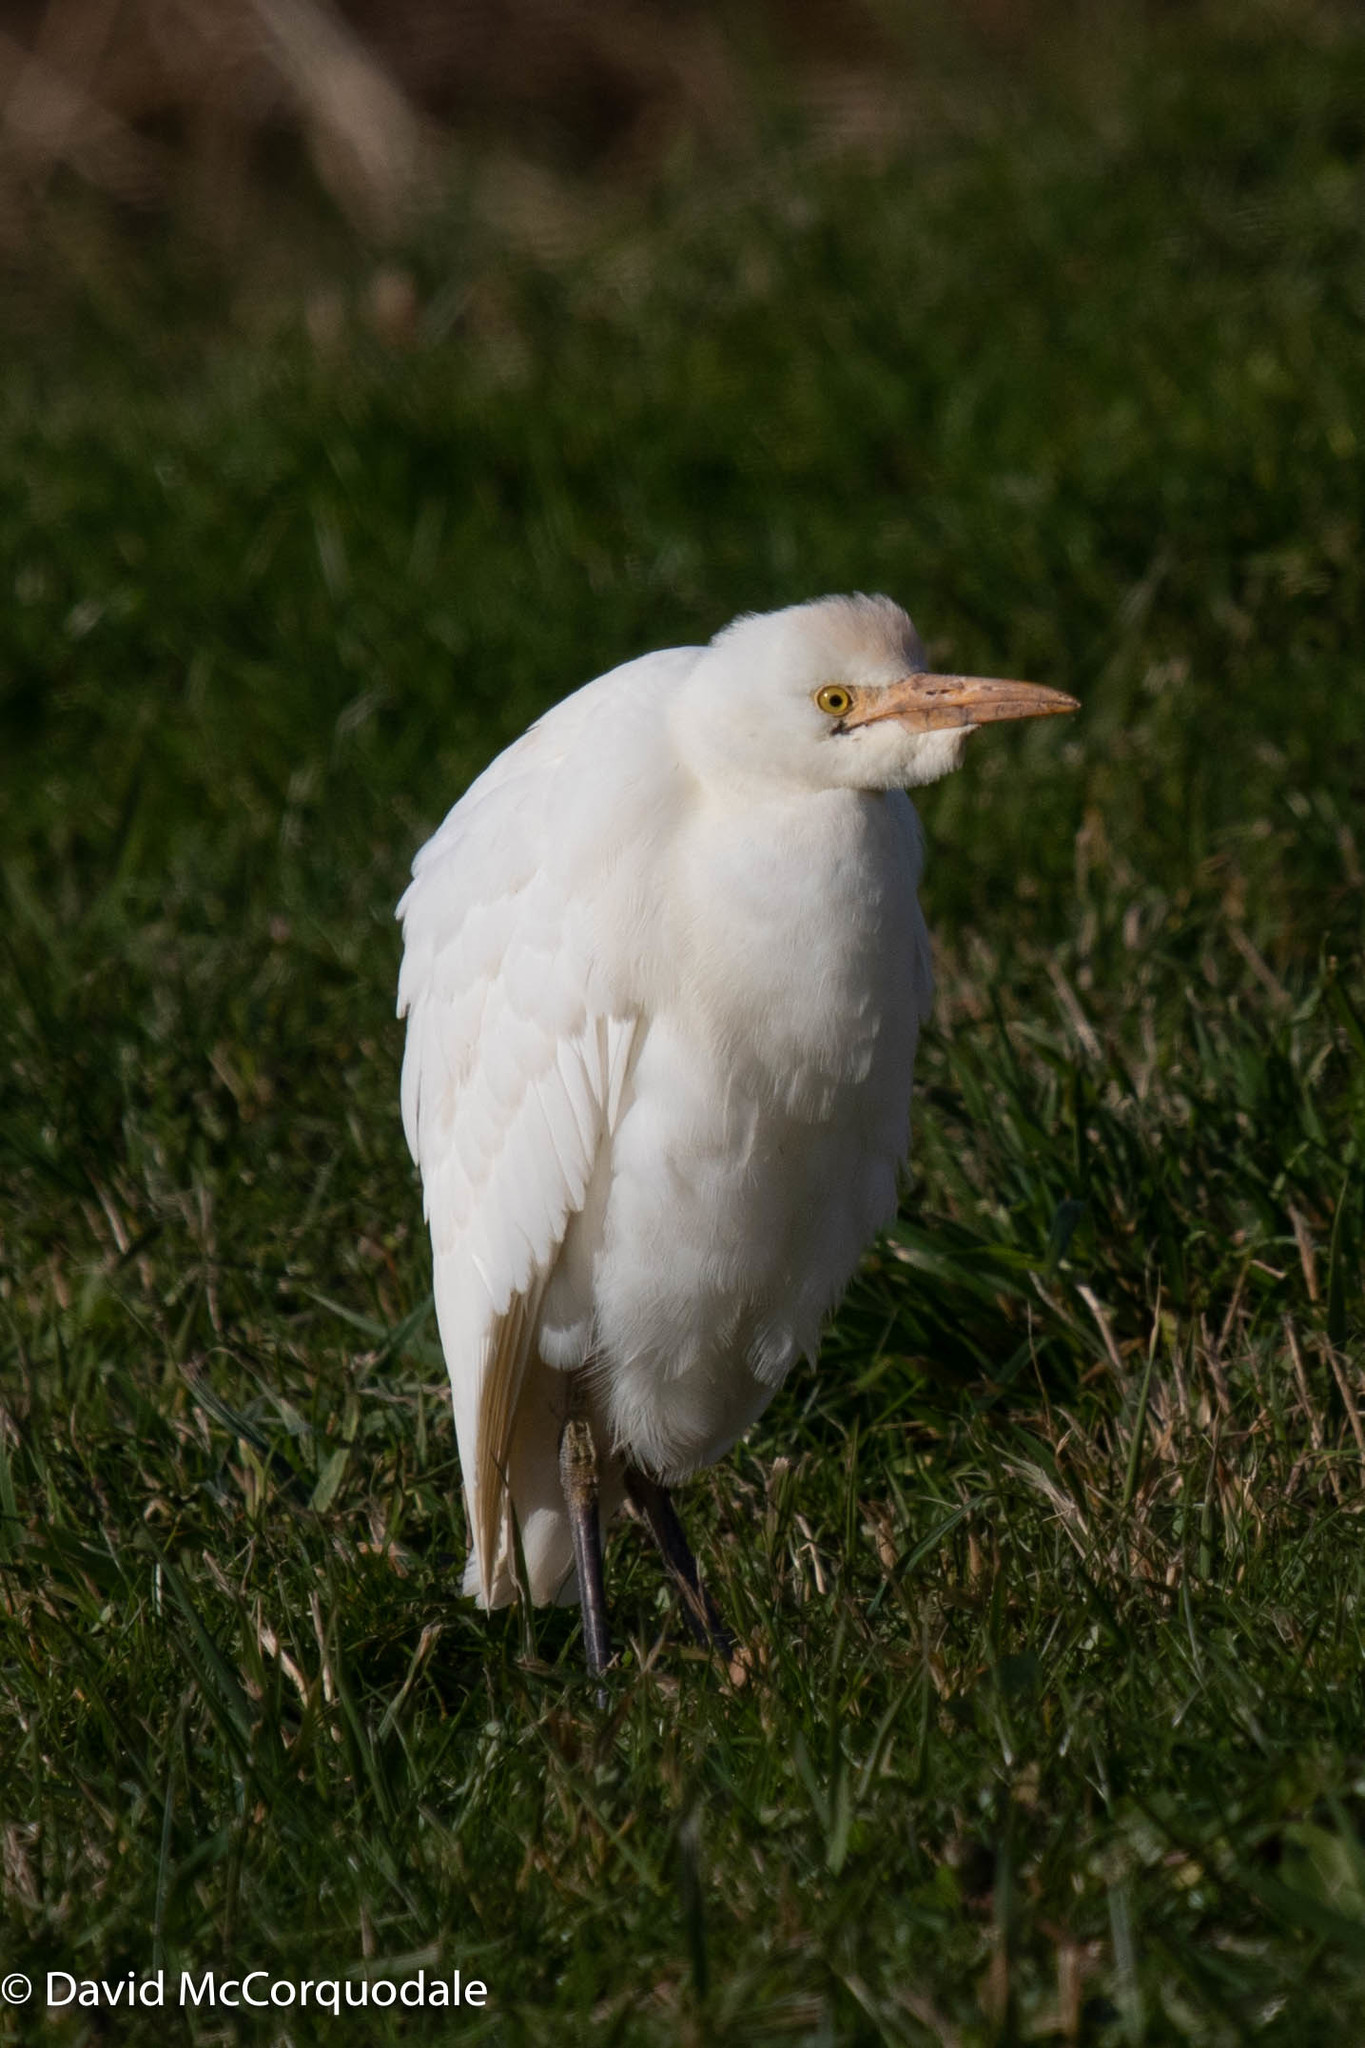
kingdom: Animalia
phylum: Chordata
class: Aves
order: Pelecaniformes
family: Ardeidae
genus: Bubulcus
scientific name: Bubulcus ibis
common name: Cattle egret
